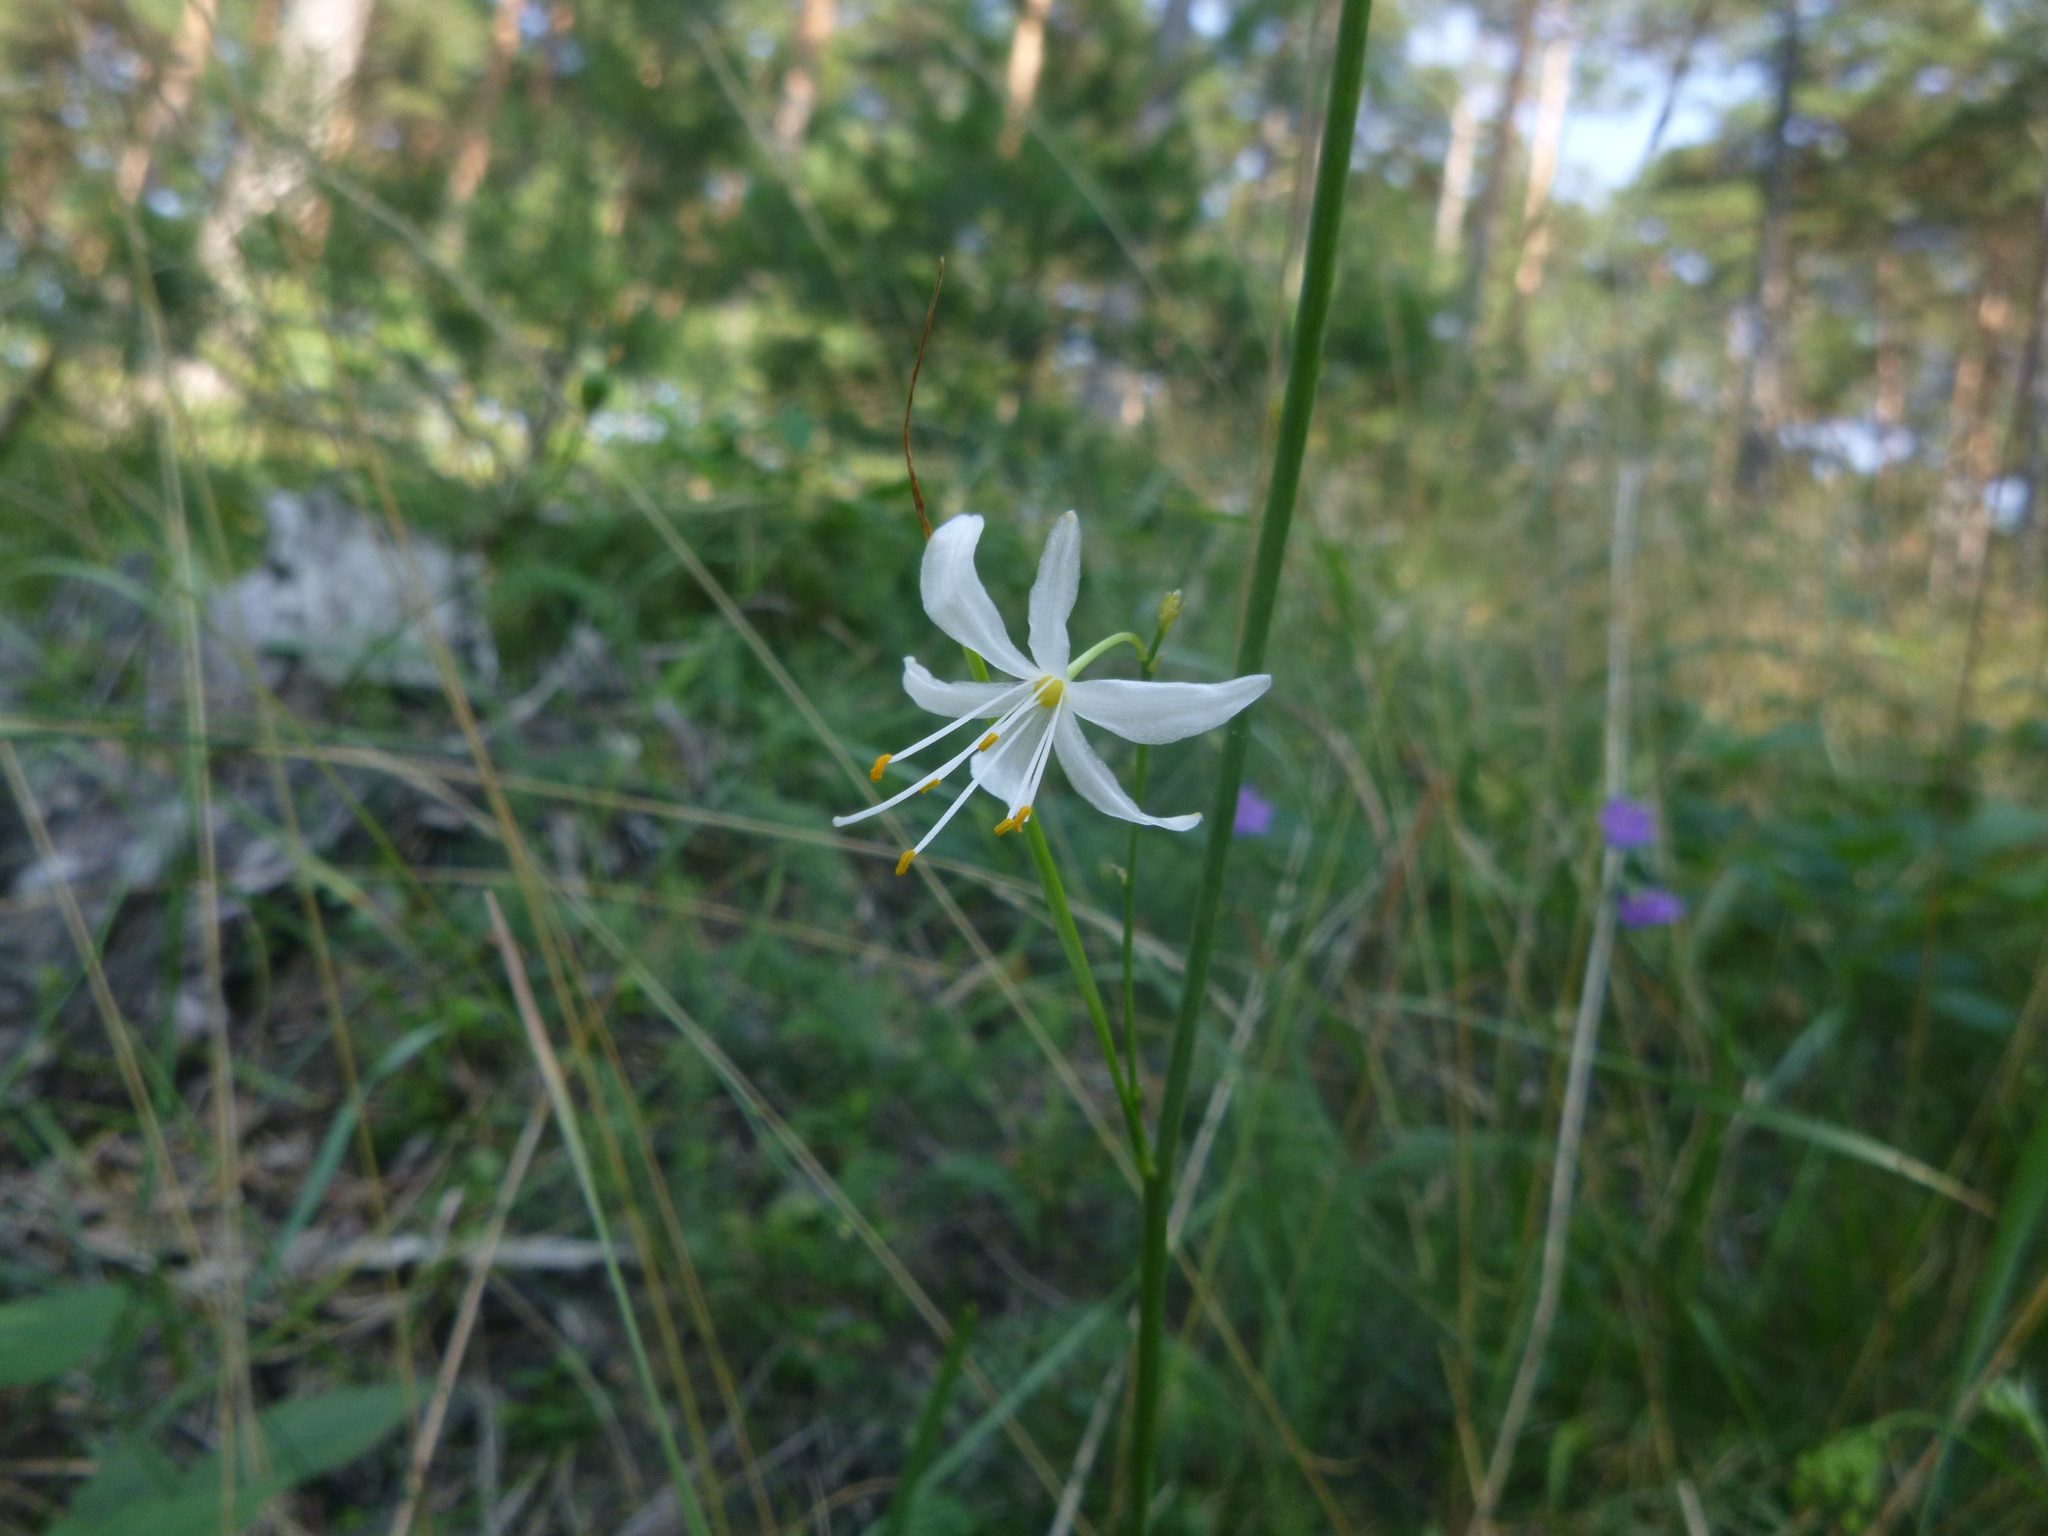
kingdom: Plantae
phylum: Tracheophyta
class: Liliopsida
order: Asparagales
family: Asparagaceae
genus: Anthericum
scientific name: Anthericum ramosum
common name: Branched st. bernard's-lily
